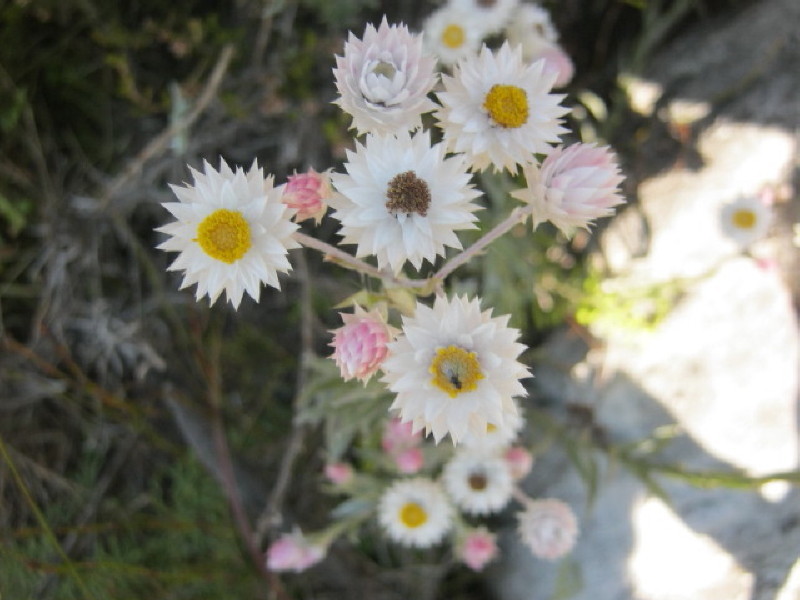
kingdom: Plantae
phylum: Tracheophyta
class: Magnoliopsida
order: Asterales
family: Asteraceae
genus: Achyranthemum
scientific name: Achyranthemum paniculatum
